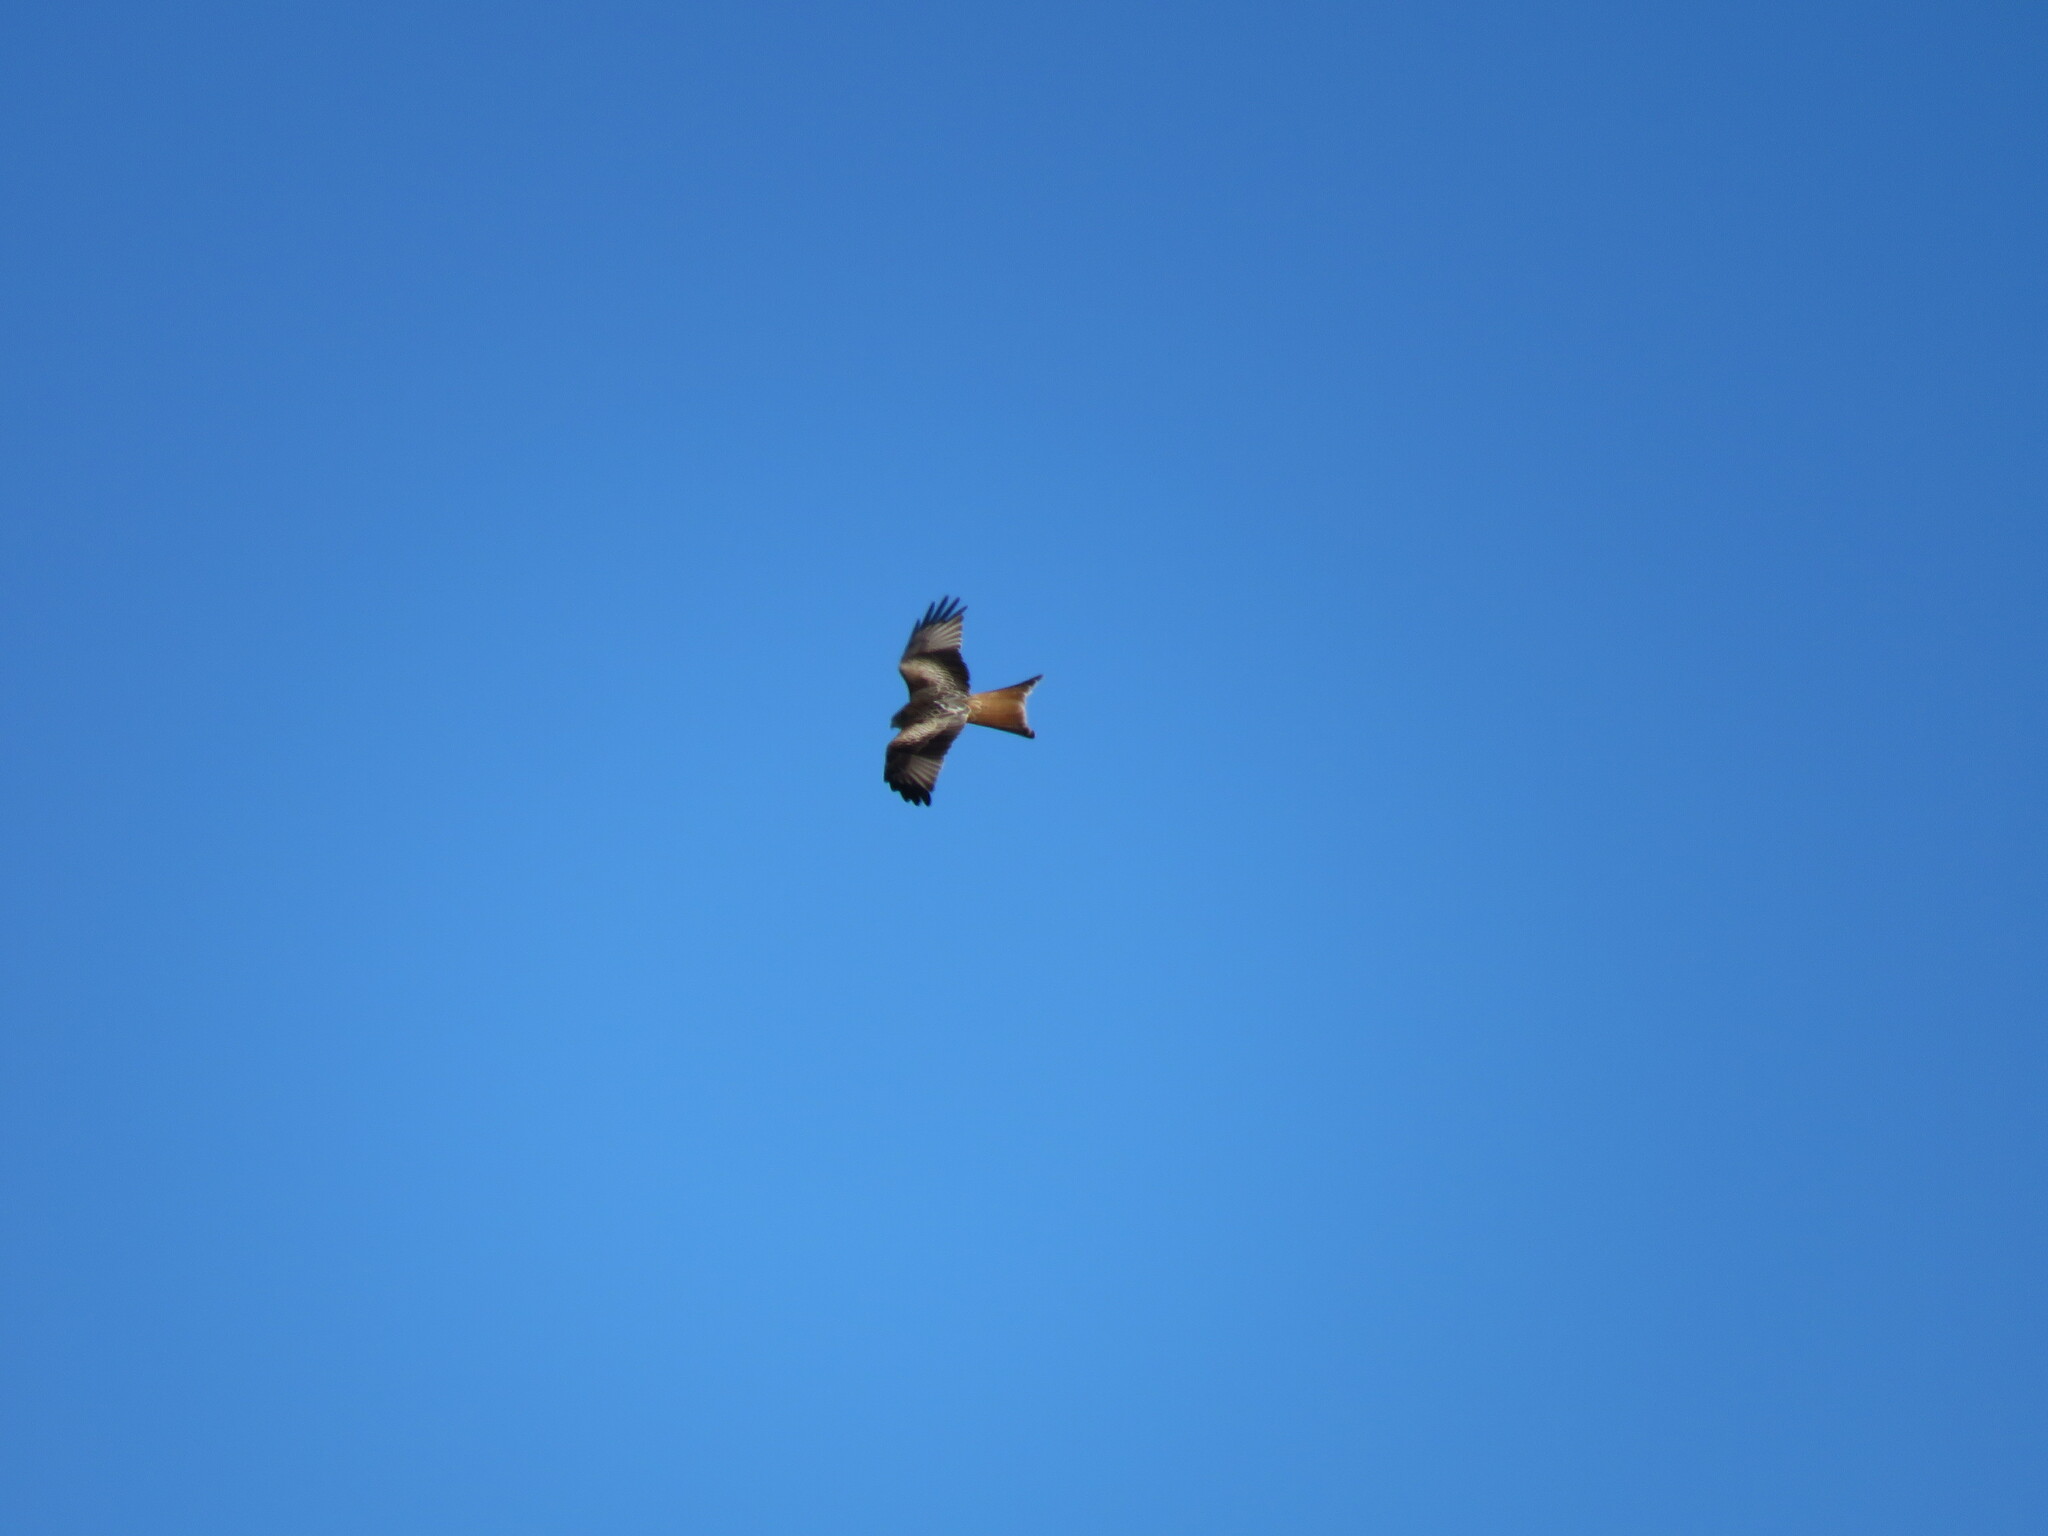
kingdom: Animalia
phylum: Chordata
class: Aves
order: Accipitriformes
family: Accipitridae
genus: Milvus
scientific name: Milvus milvus
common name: Red kite
